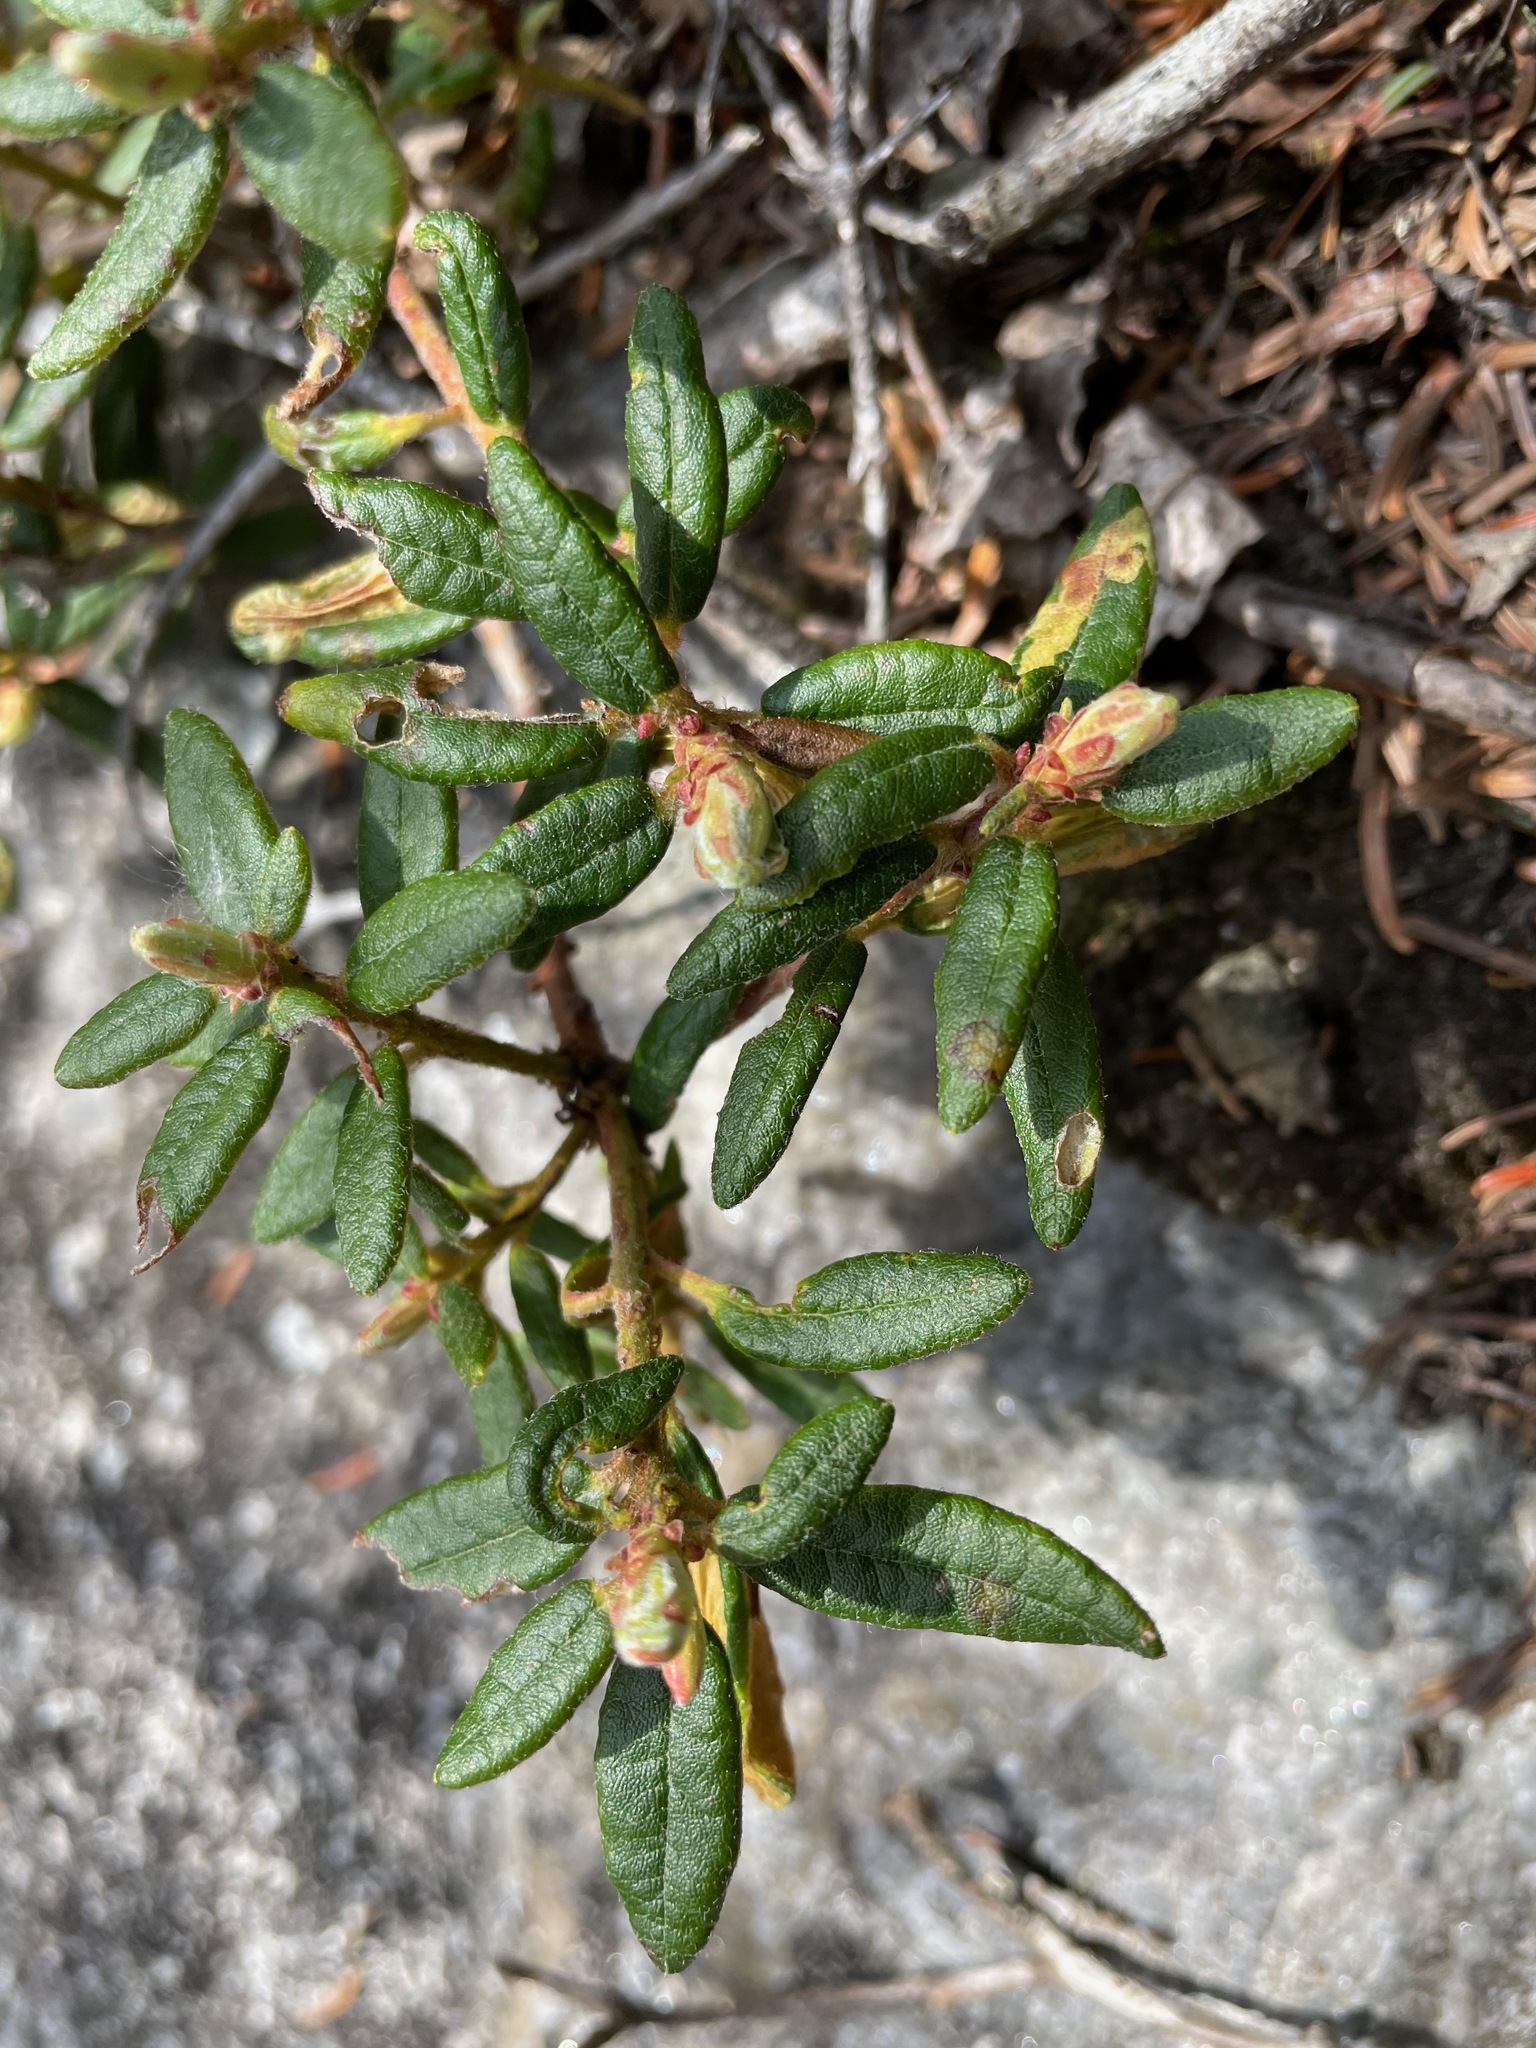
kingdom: Plantae
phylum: Tracheophyta
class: Magnoliopsida
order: Ericales
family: Ericaceae
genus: Rhododendron
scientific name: Rhododendron groenlandicum
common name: Bog labrador tea
